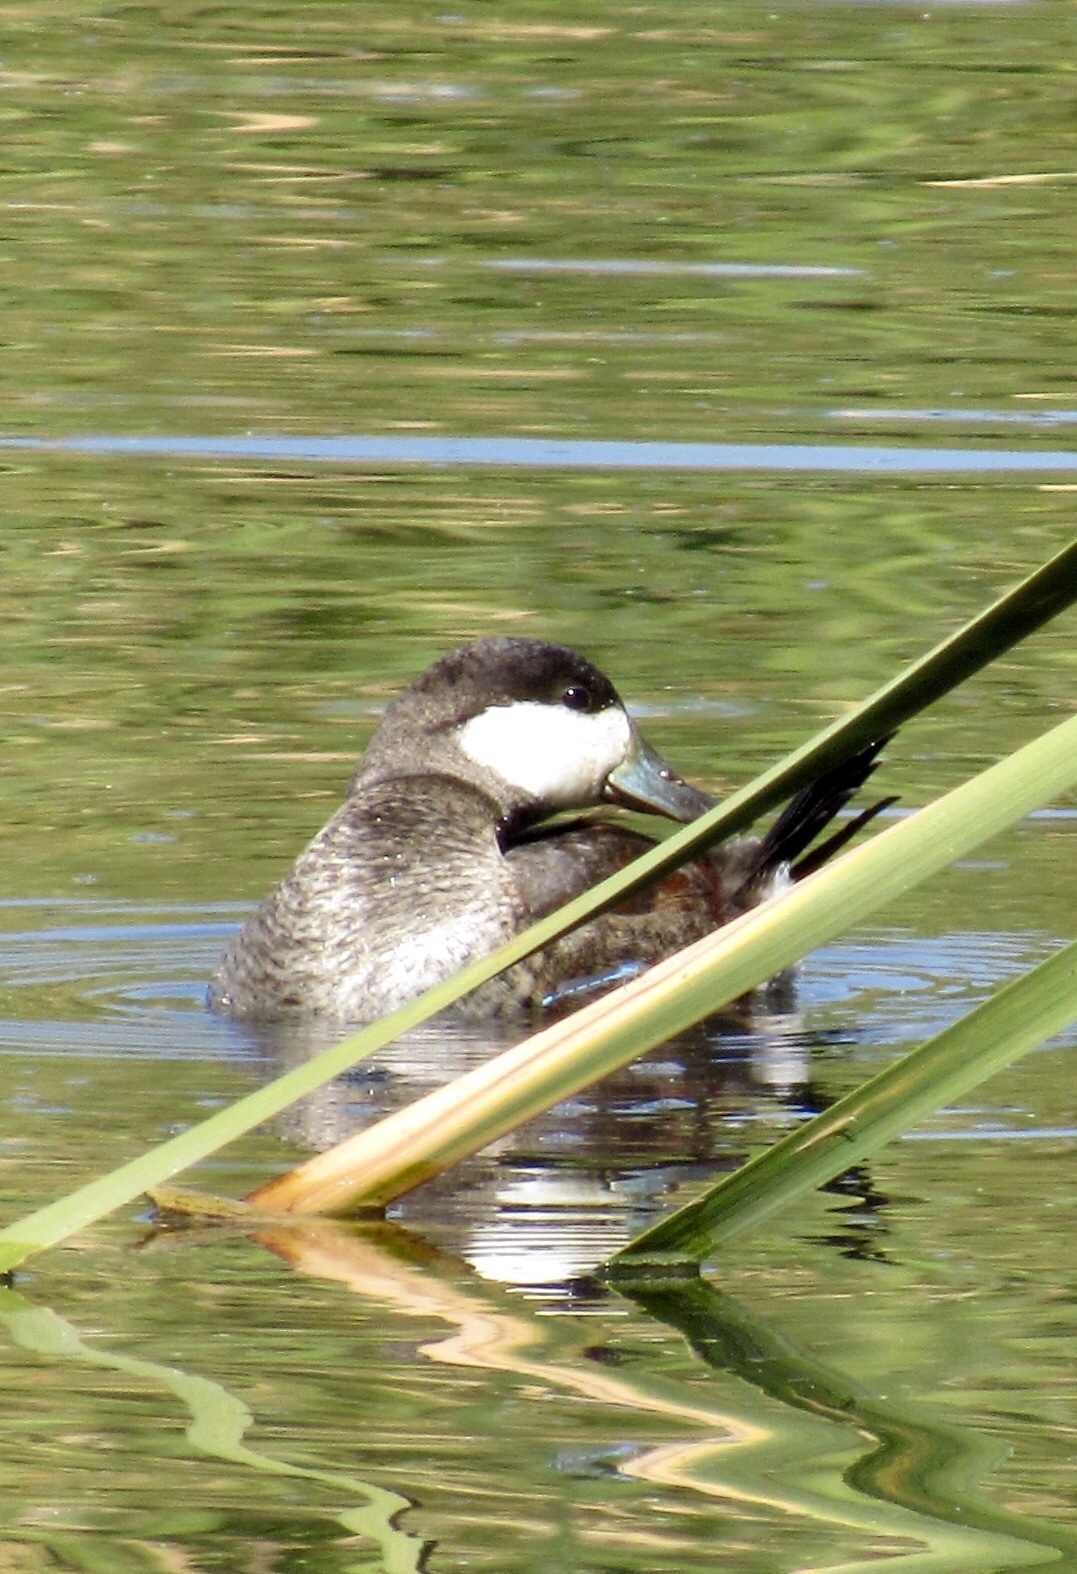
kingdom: Animalia
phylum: Chordata
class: Aves
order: Anseriformes
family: Anatidae
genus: Oxyura
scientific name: Oxyura jamaicensis
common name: Ruddy duck
